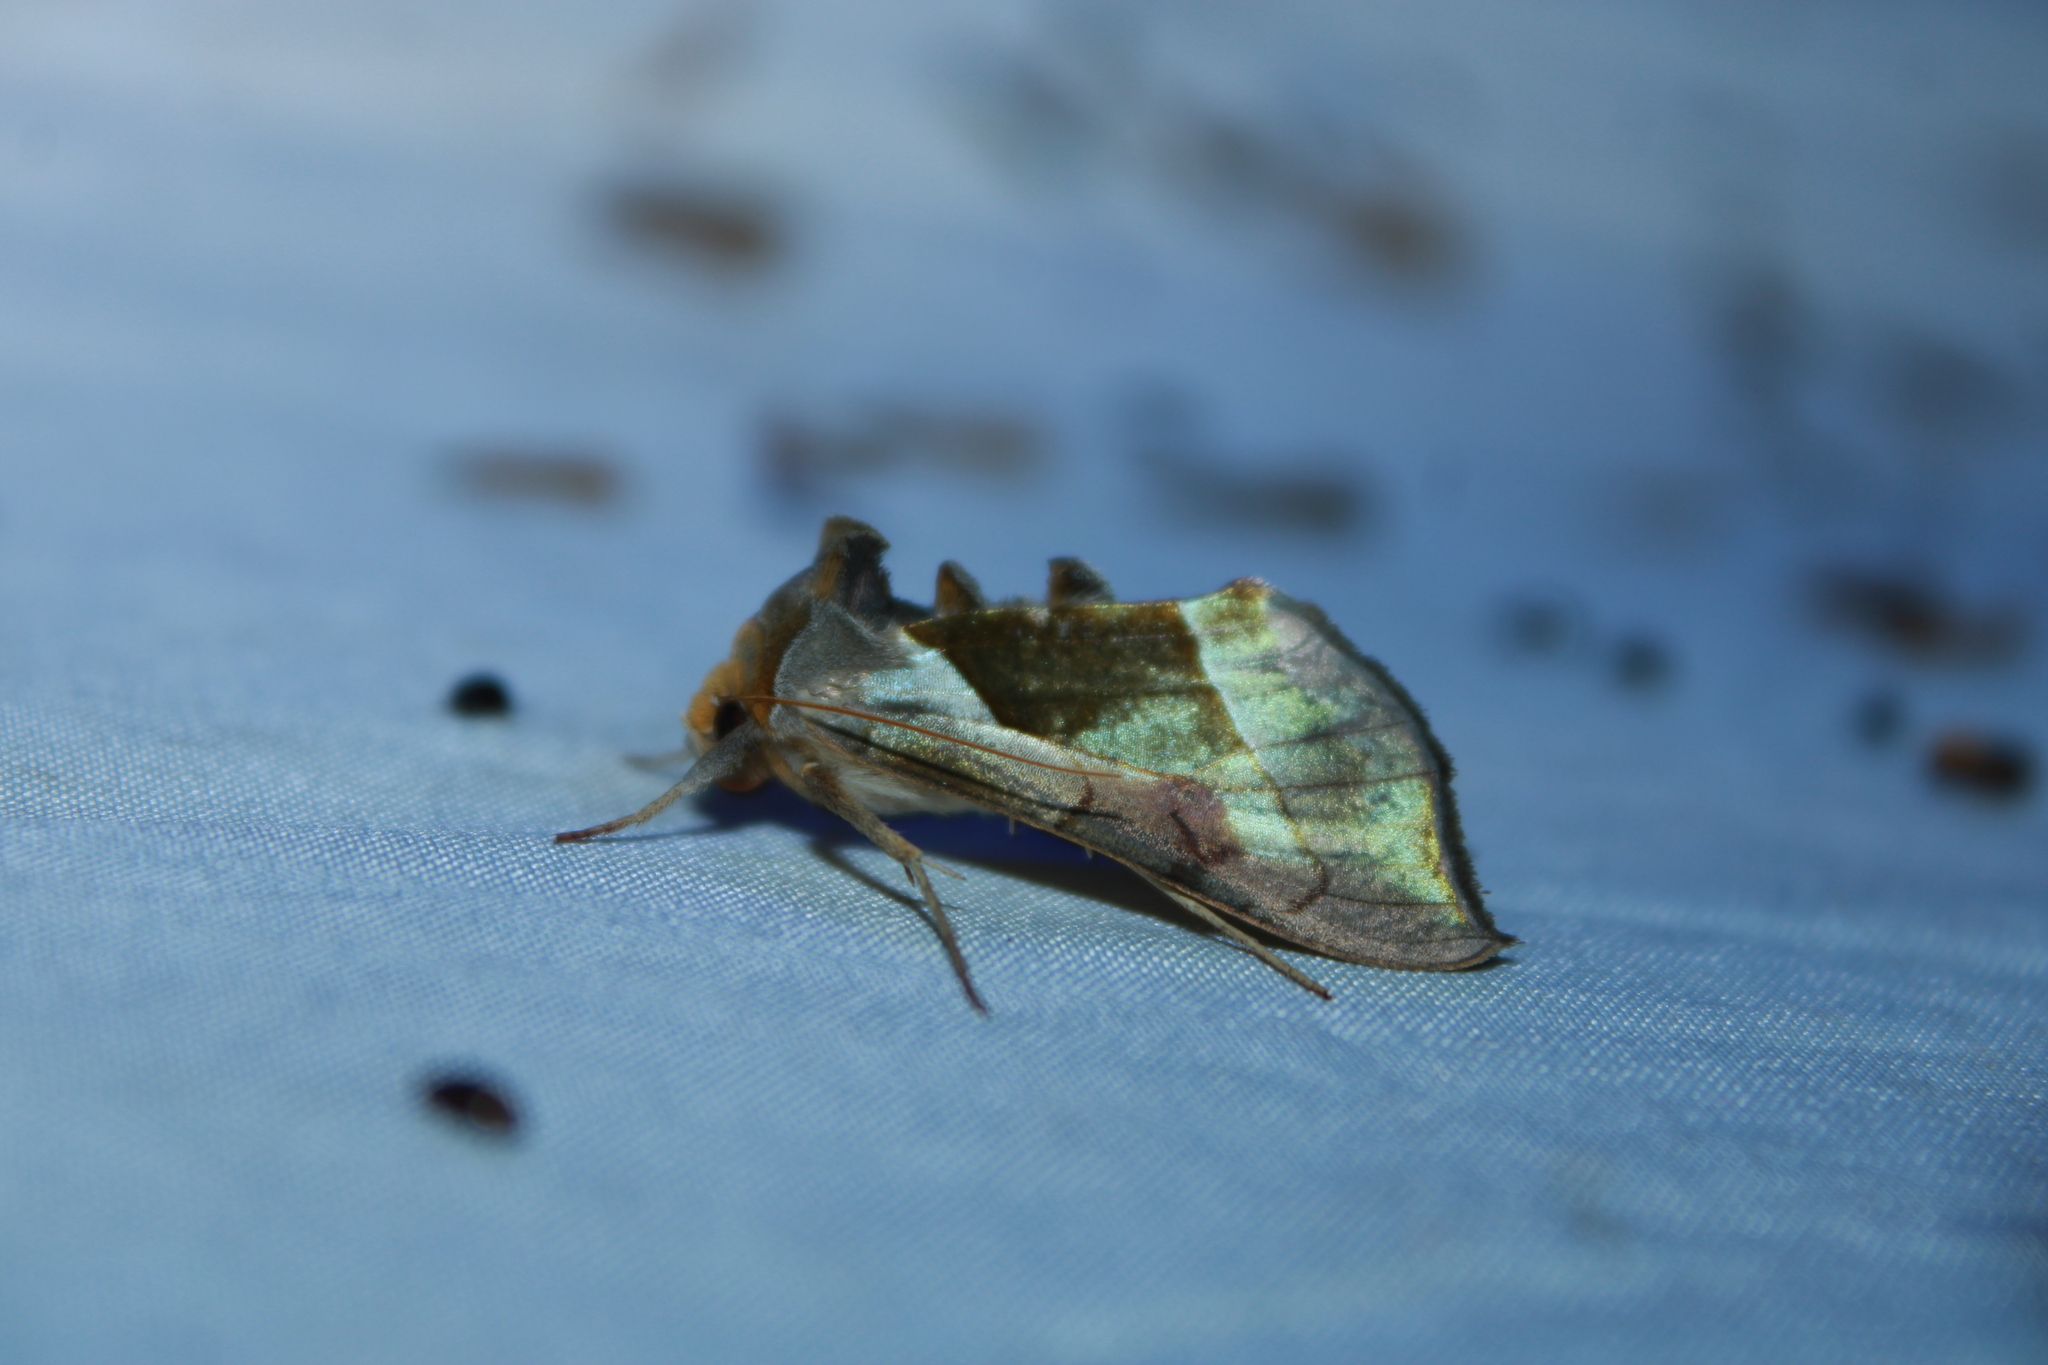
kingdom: Animalia
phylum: Arthropoda
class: Insecta
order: Lepidoptera
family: Noctuidae
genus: Diachrysia
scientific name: Diachrysia balluca
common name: Green-patched looper moth
